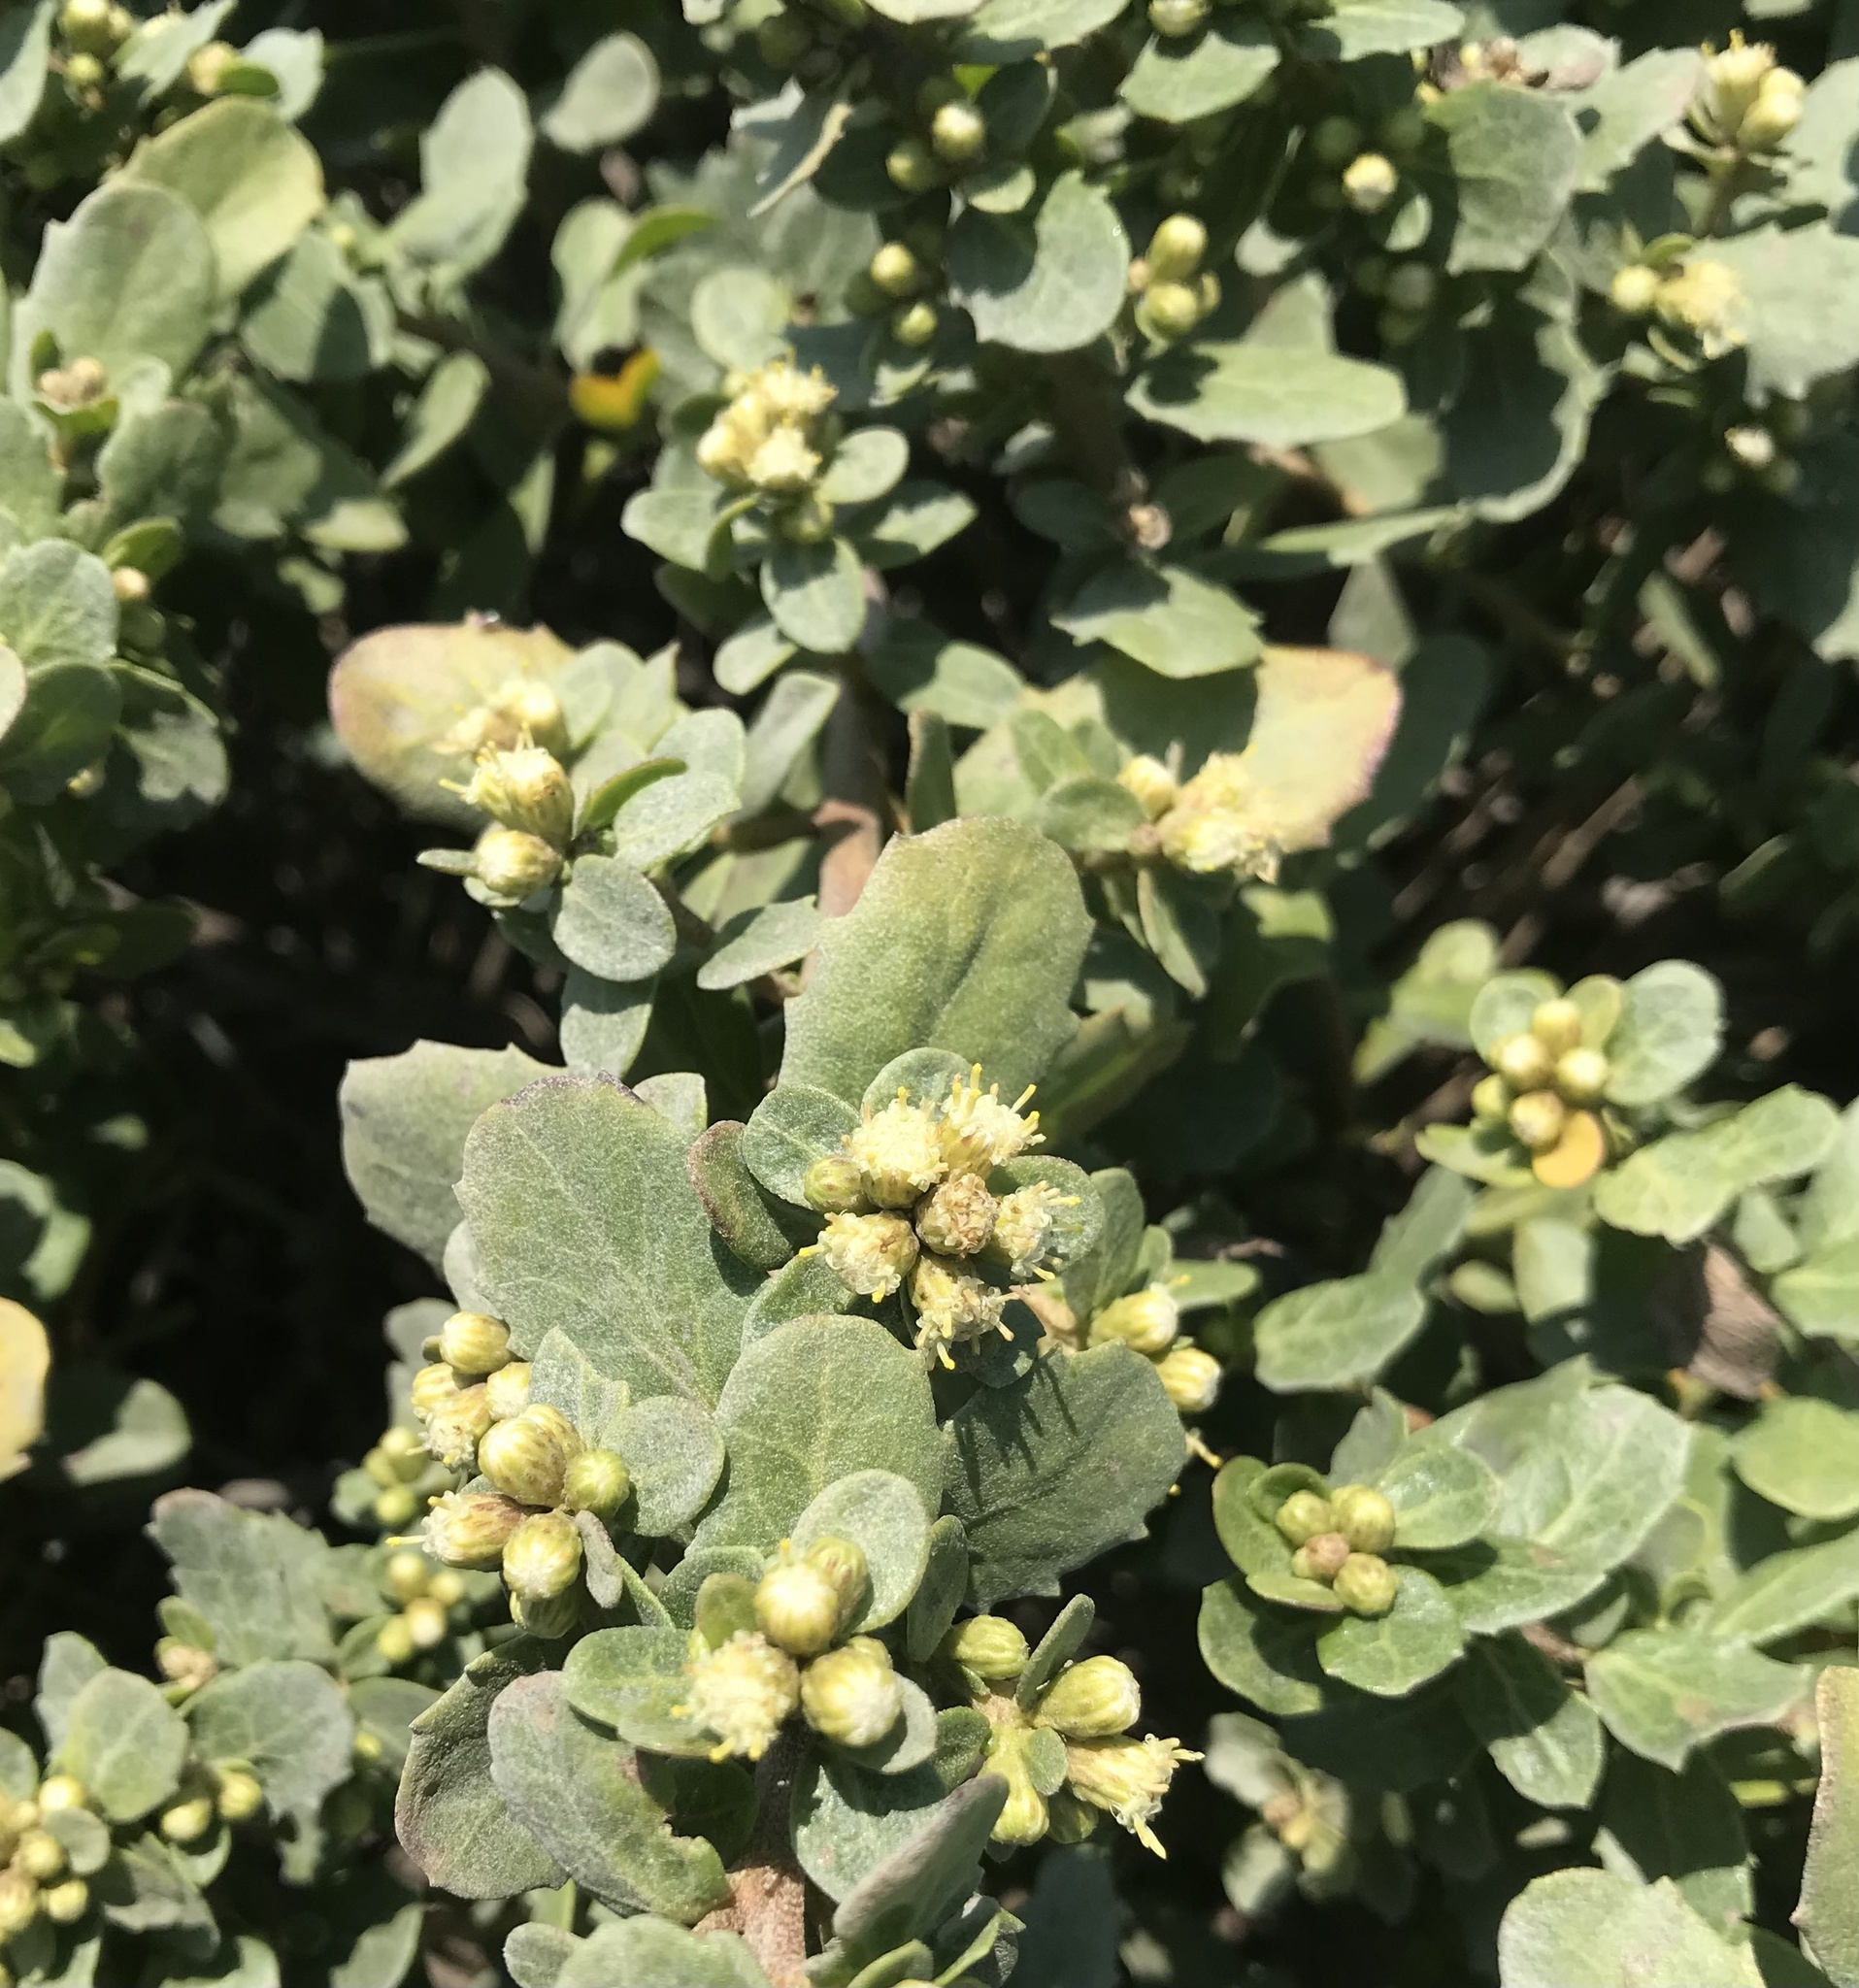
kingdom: Plantae
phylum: Tracheophyta
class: Magnoliopsida
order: Asterales
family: Asteraceae
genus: Baccharis
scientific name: Baccharis pilularis
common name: Coyotebrush
